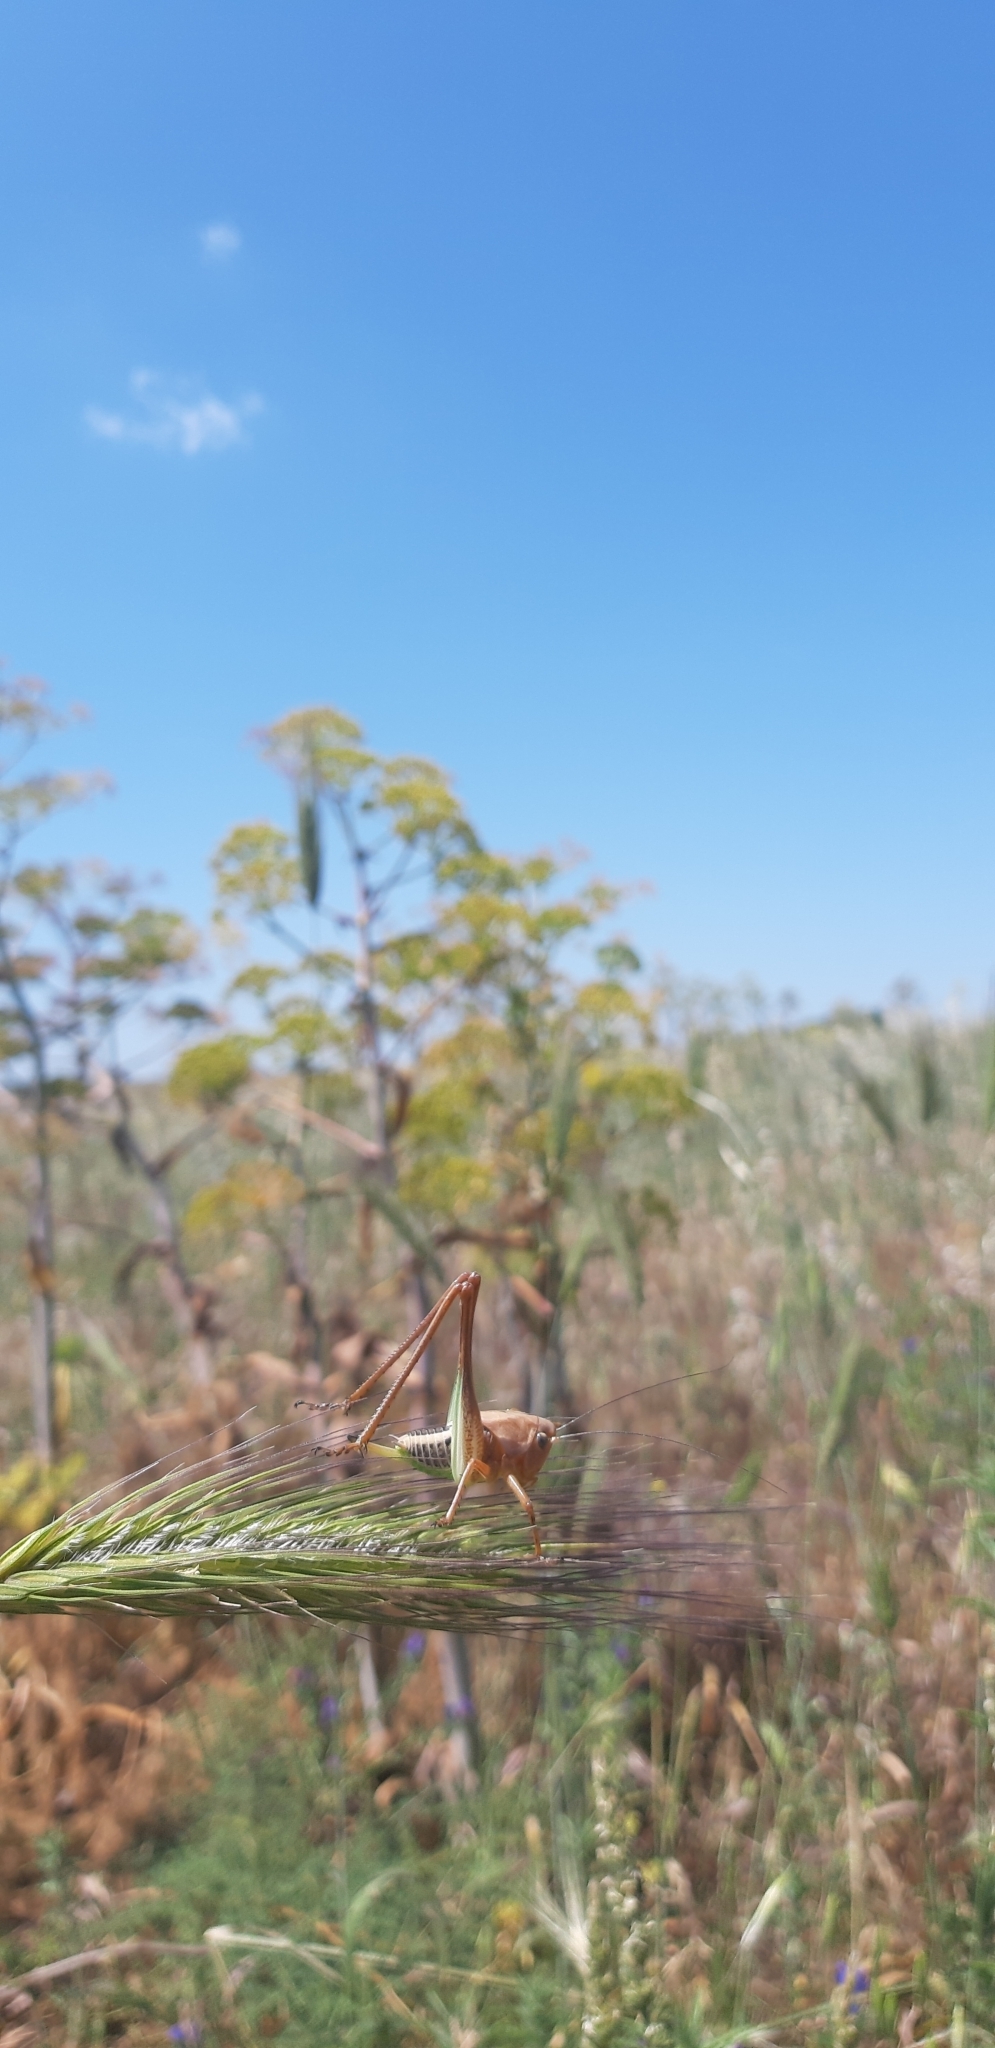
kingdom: Animalia
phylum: Arthropoda
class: Insecta
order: Orthoptera
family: Tettigoniidae
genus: Decticus
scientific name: Decticus albifrons
